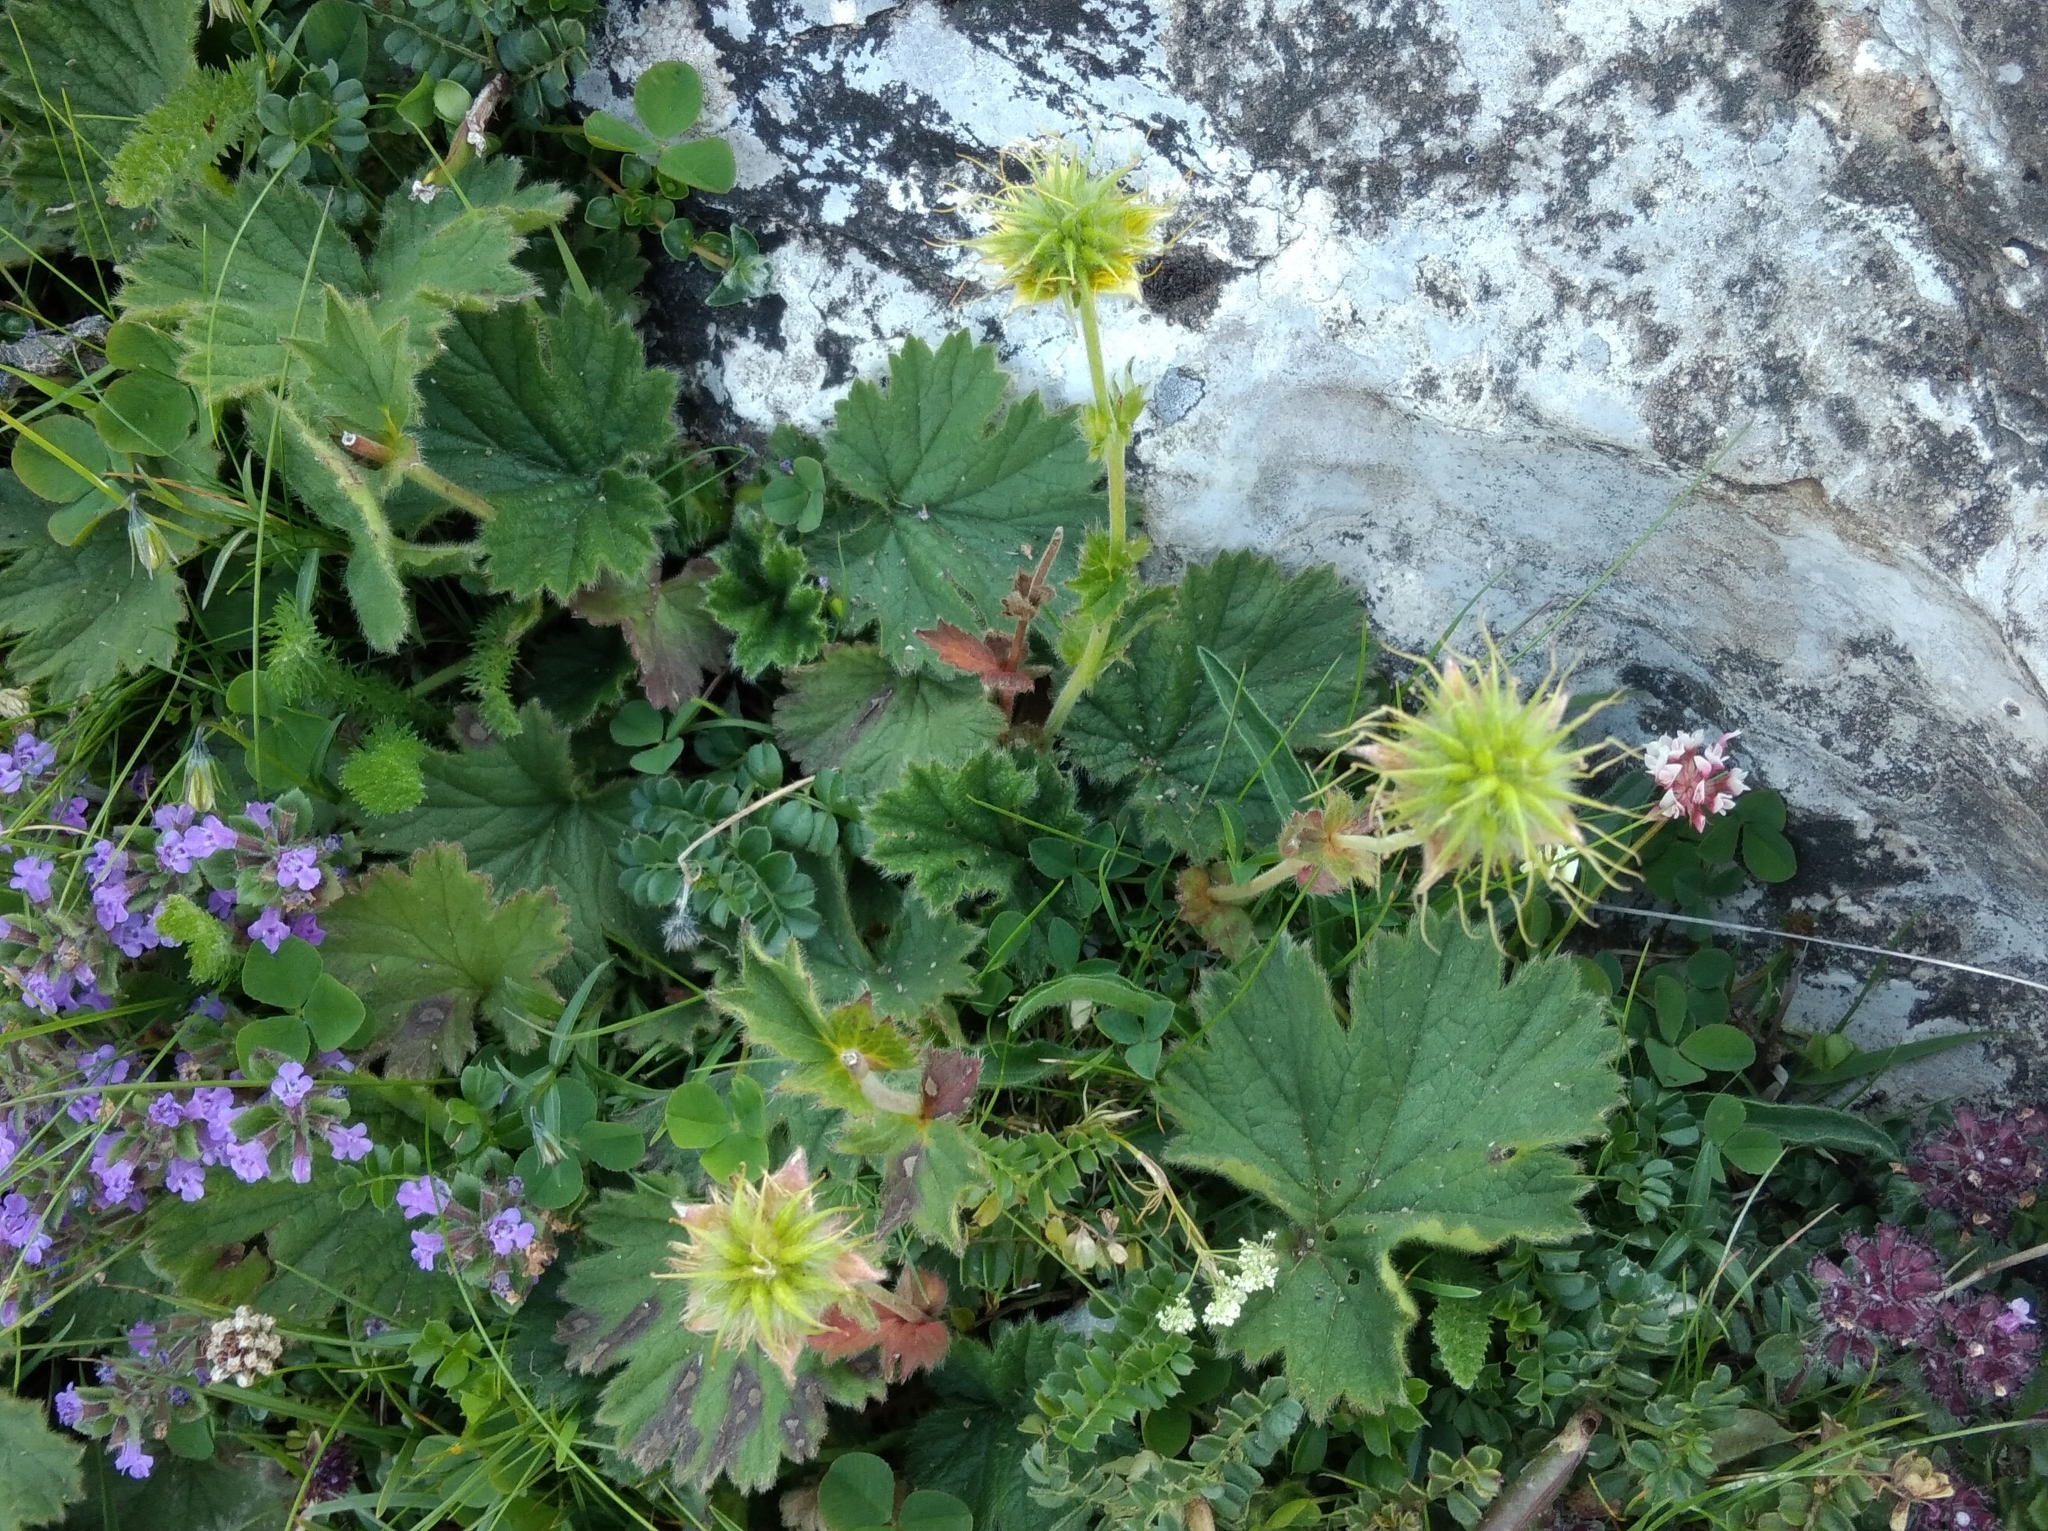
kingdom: Plantae
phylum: Tracheophyta
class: Magnoliopsida
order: Rosales
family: Rosaceae
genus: Geum
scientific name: Geum pyrenaicum
